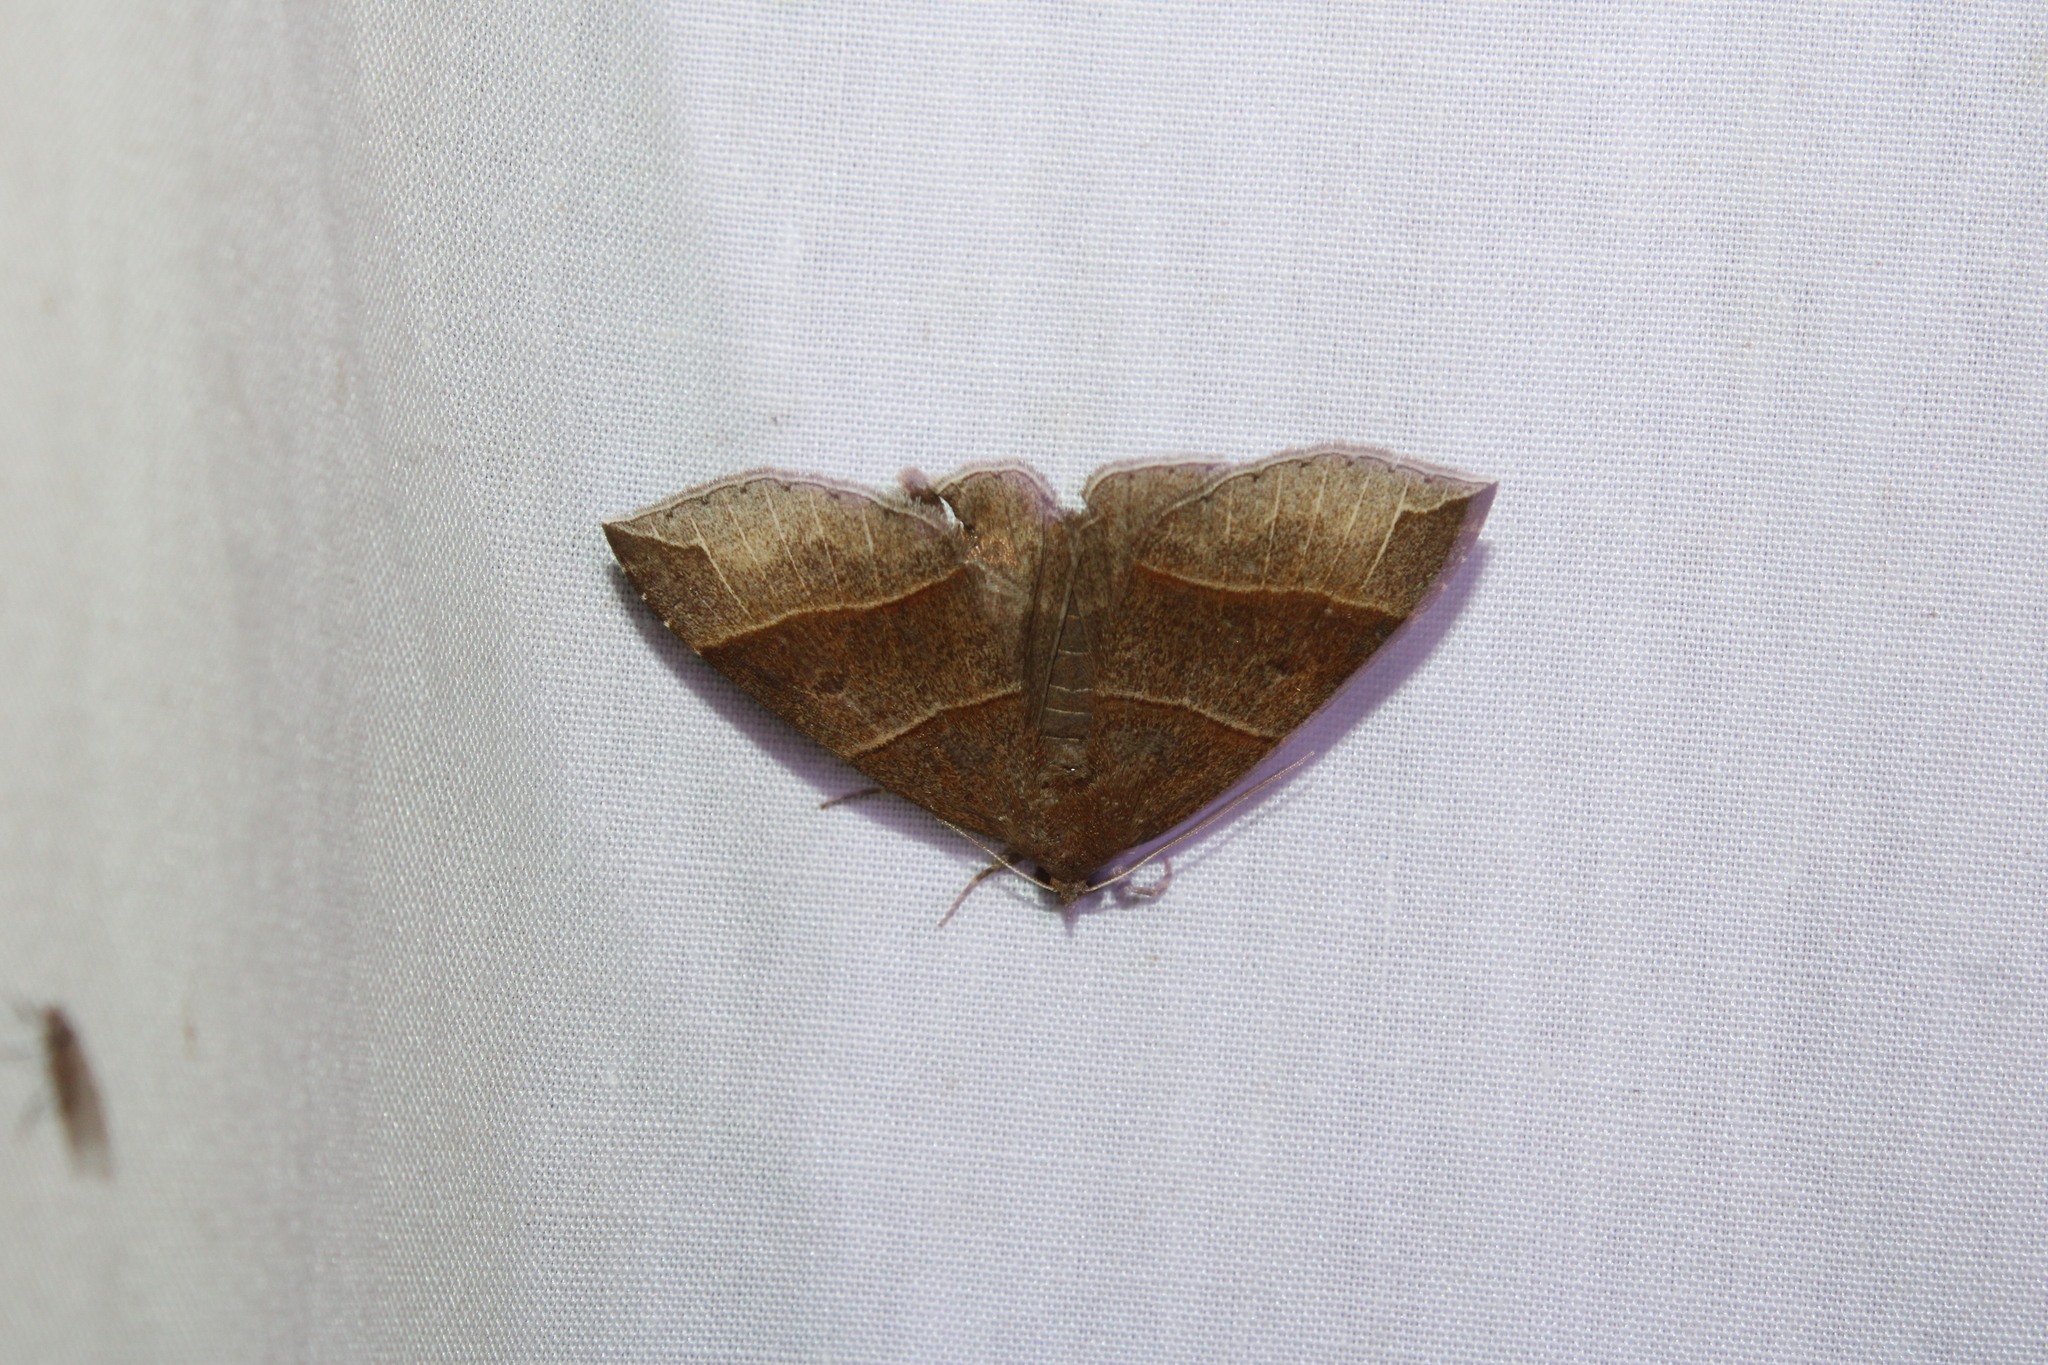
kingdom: Animalia
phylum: Arthropoda
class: Insecta
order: Lepidoptera
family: Erebidae
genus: Parallelia
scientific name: Parallelia bistriaris
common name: Maple looper moth
